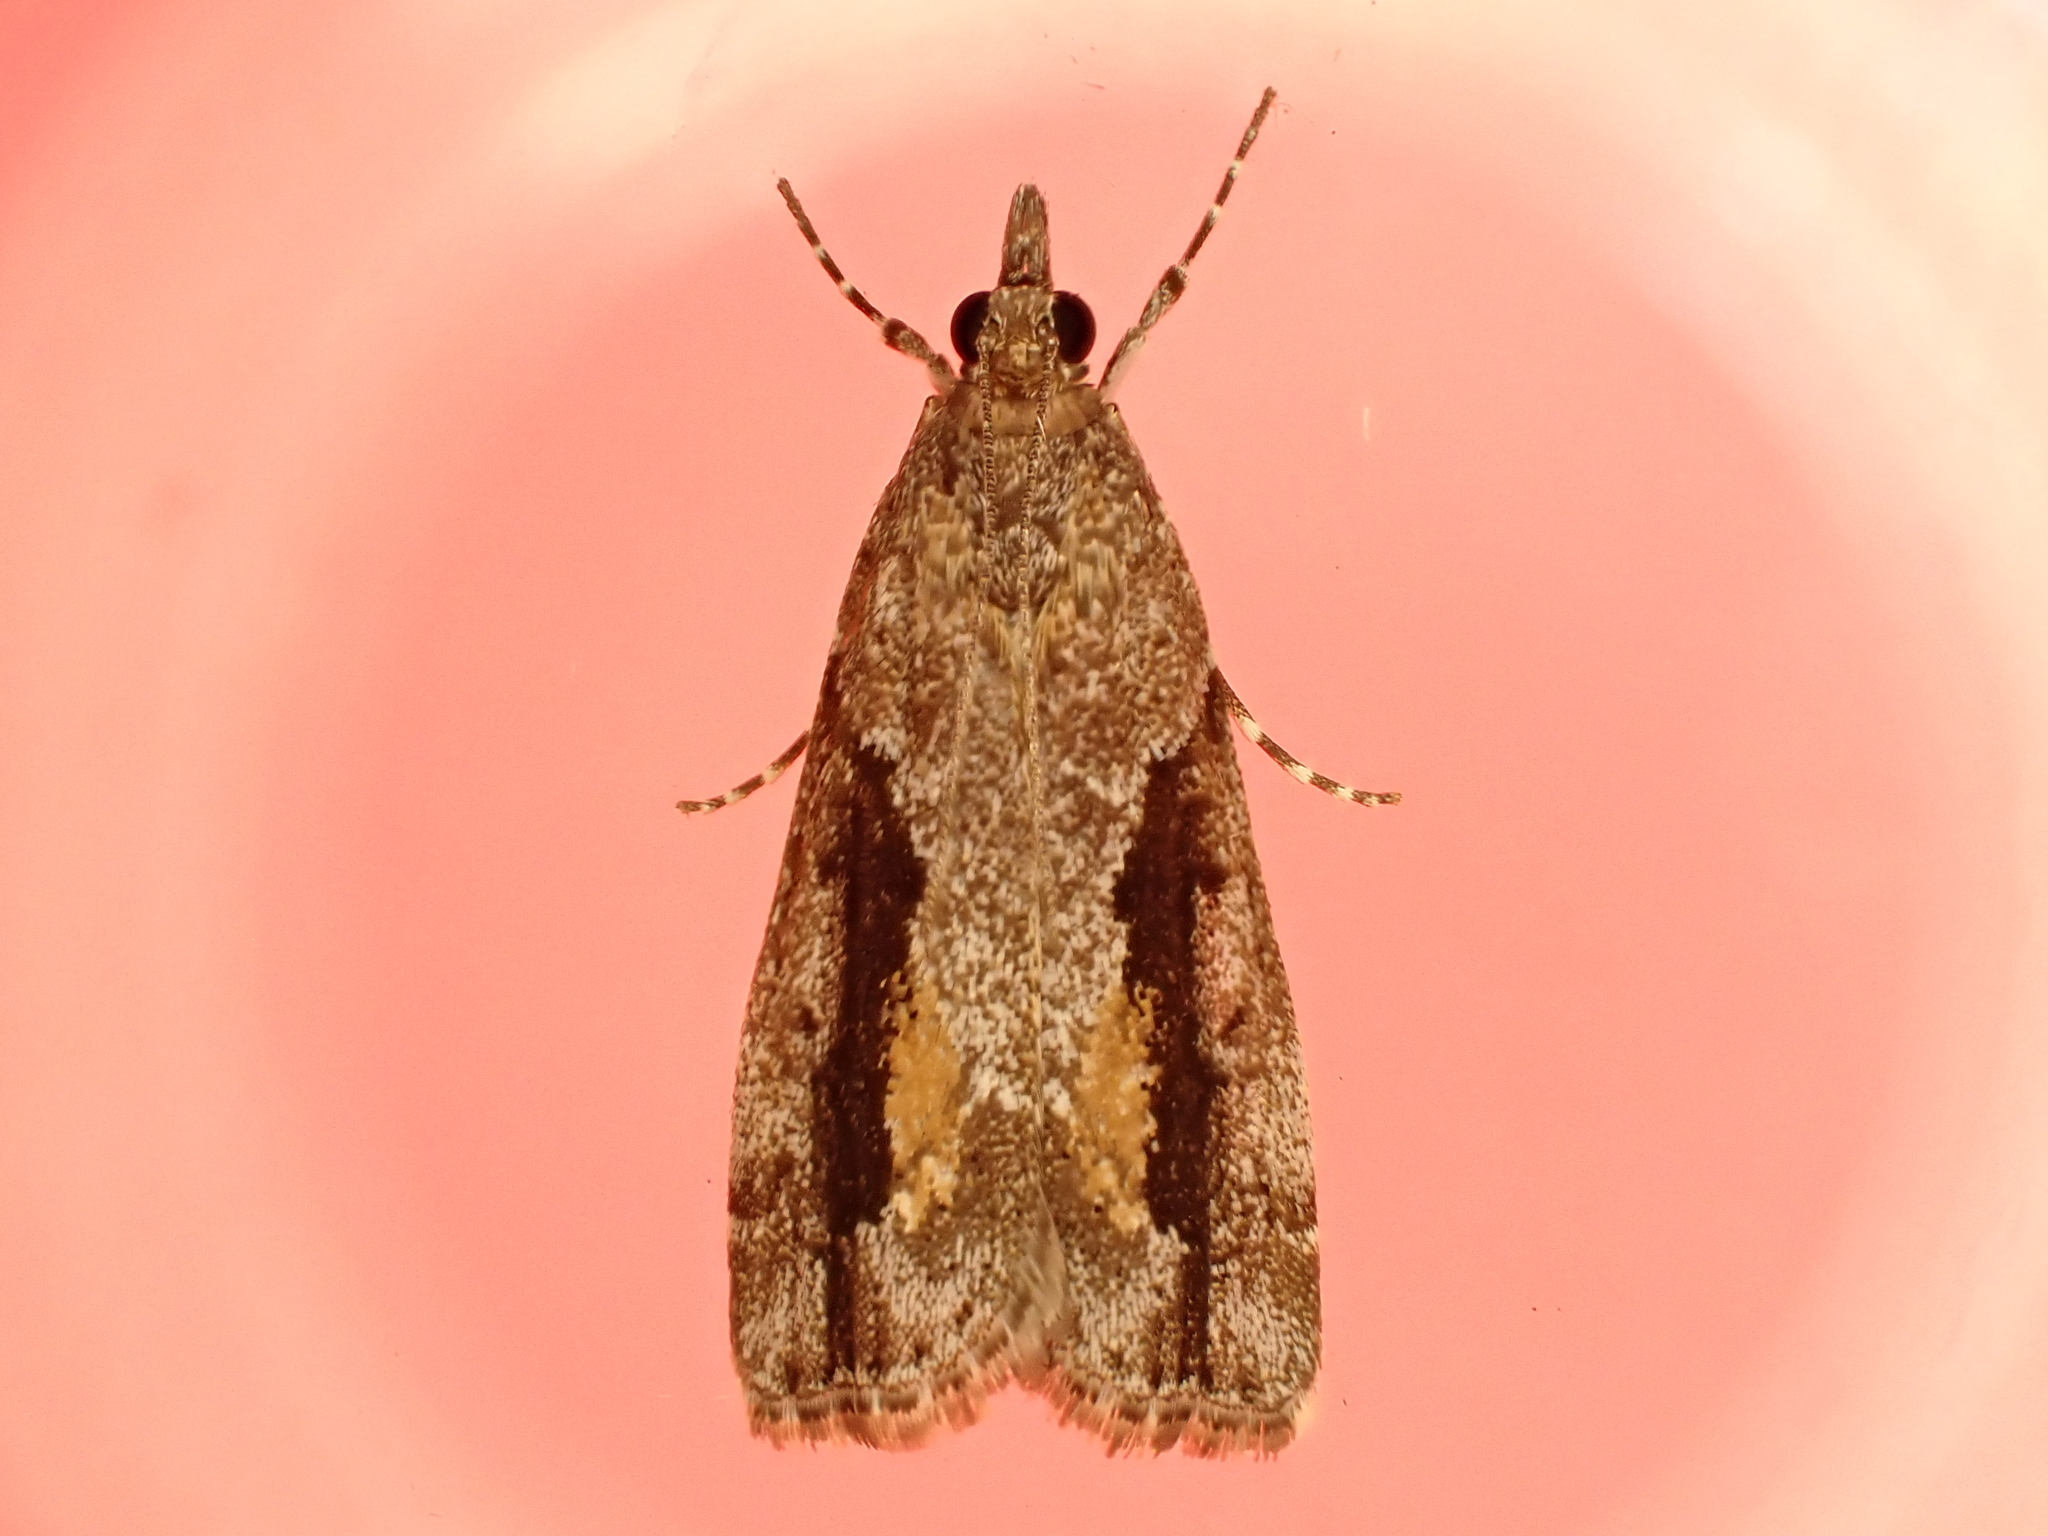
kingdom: Animalia
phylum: Arthropoda
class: Insecta
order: Lepidoptera
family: Crambidae
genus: Eudonia
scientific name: Eudonia submarginalis
